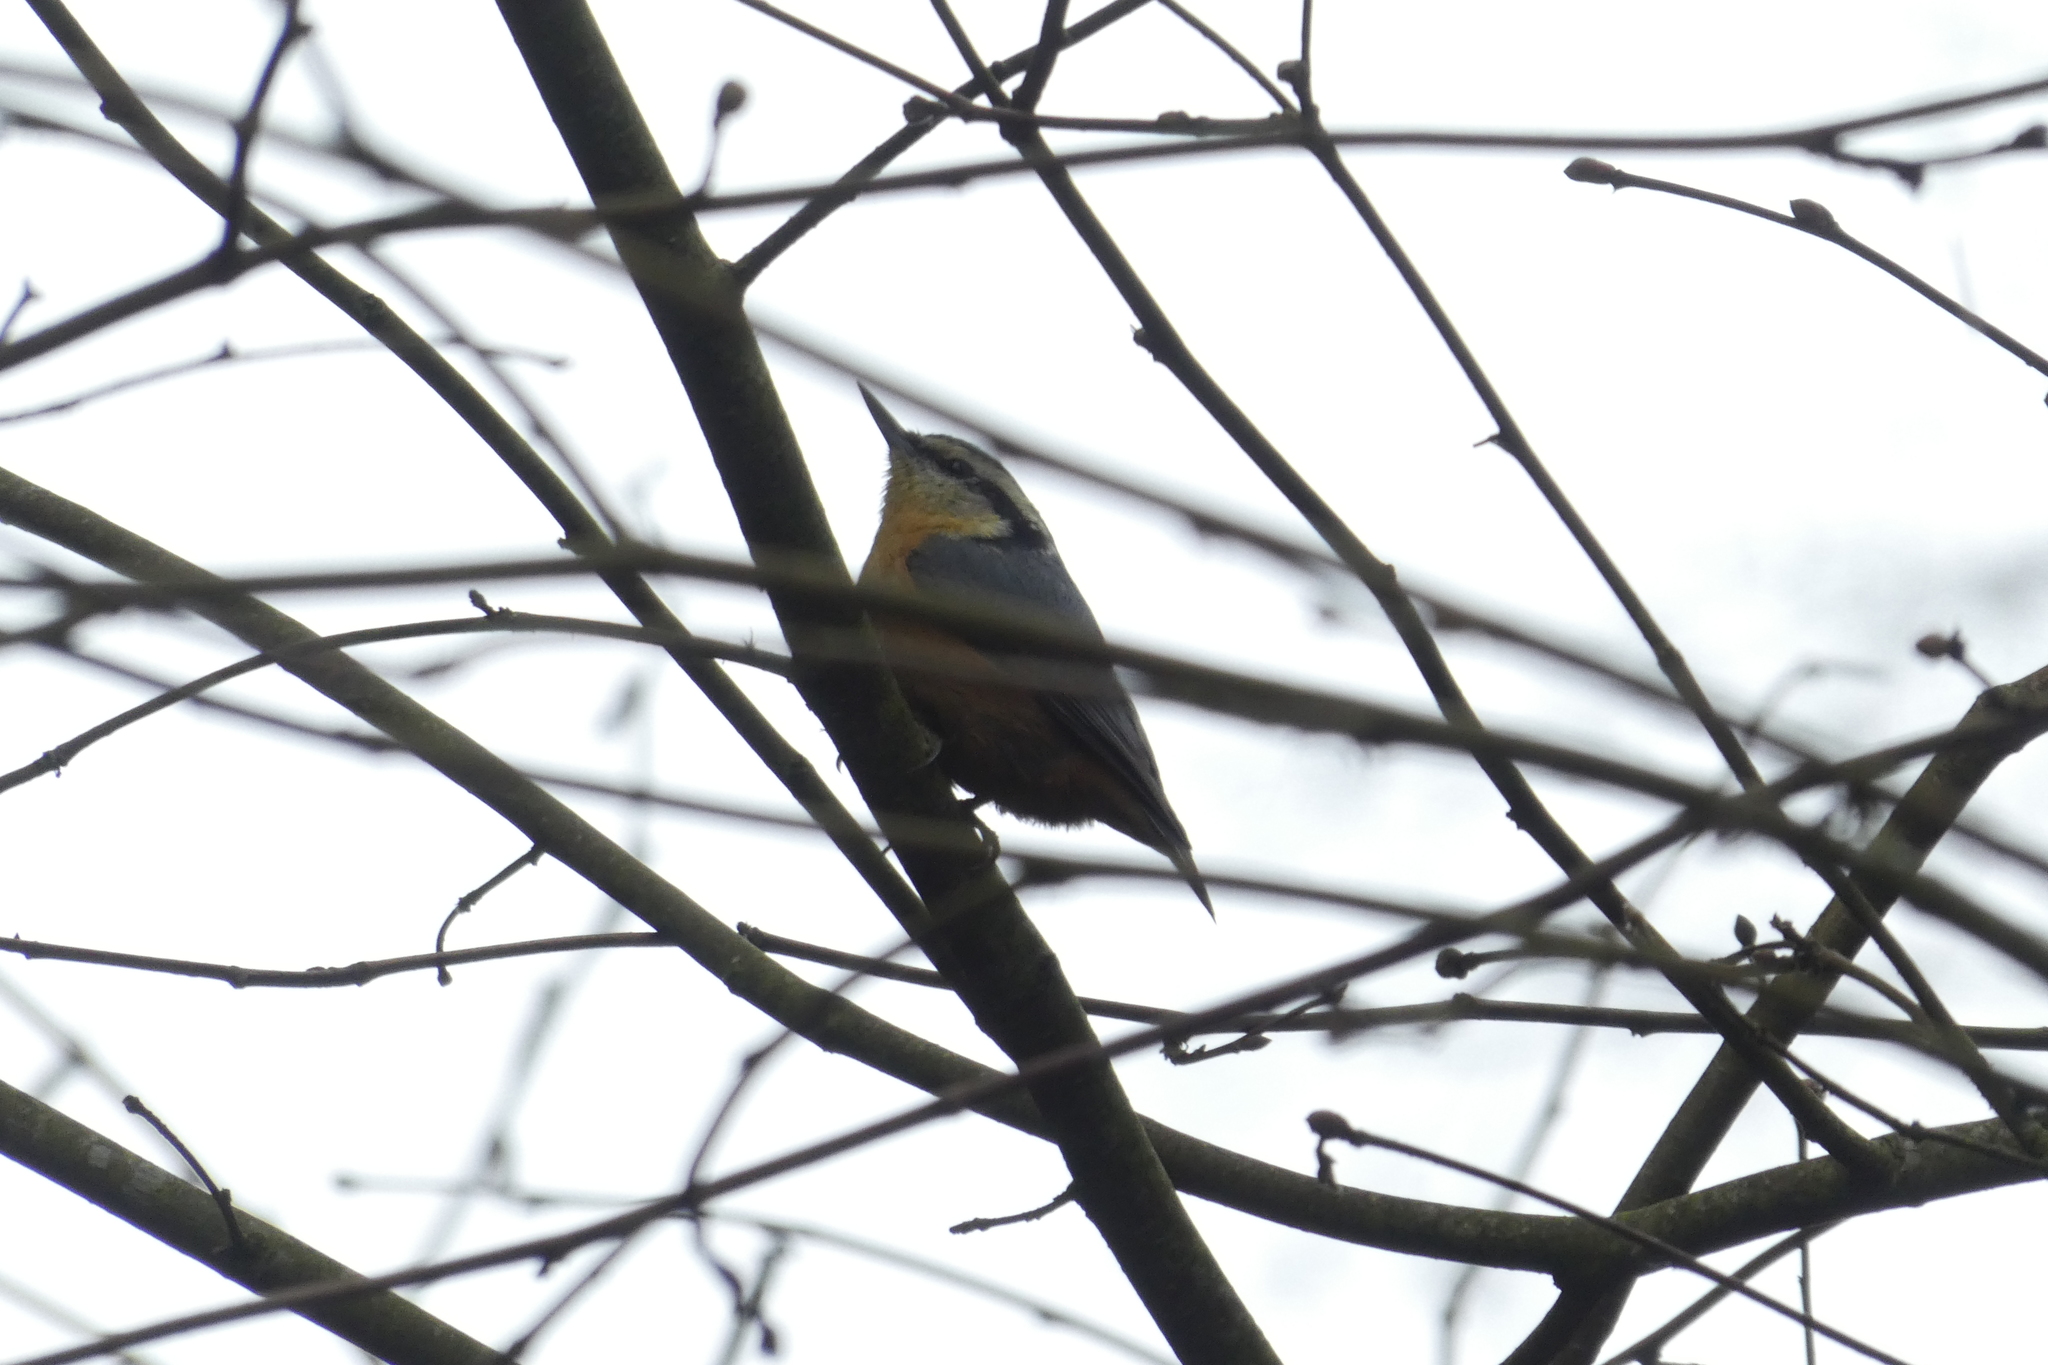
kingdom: Animalia
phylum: Chordata
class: Aves
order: Passeriformes
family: Sittidae
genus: Sitta
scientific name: Sitta canadensis
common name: Red-breasted nuthatch
